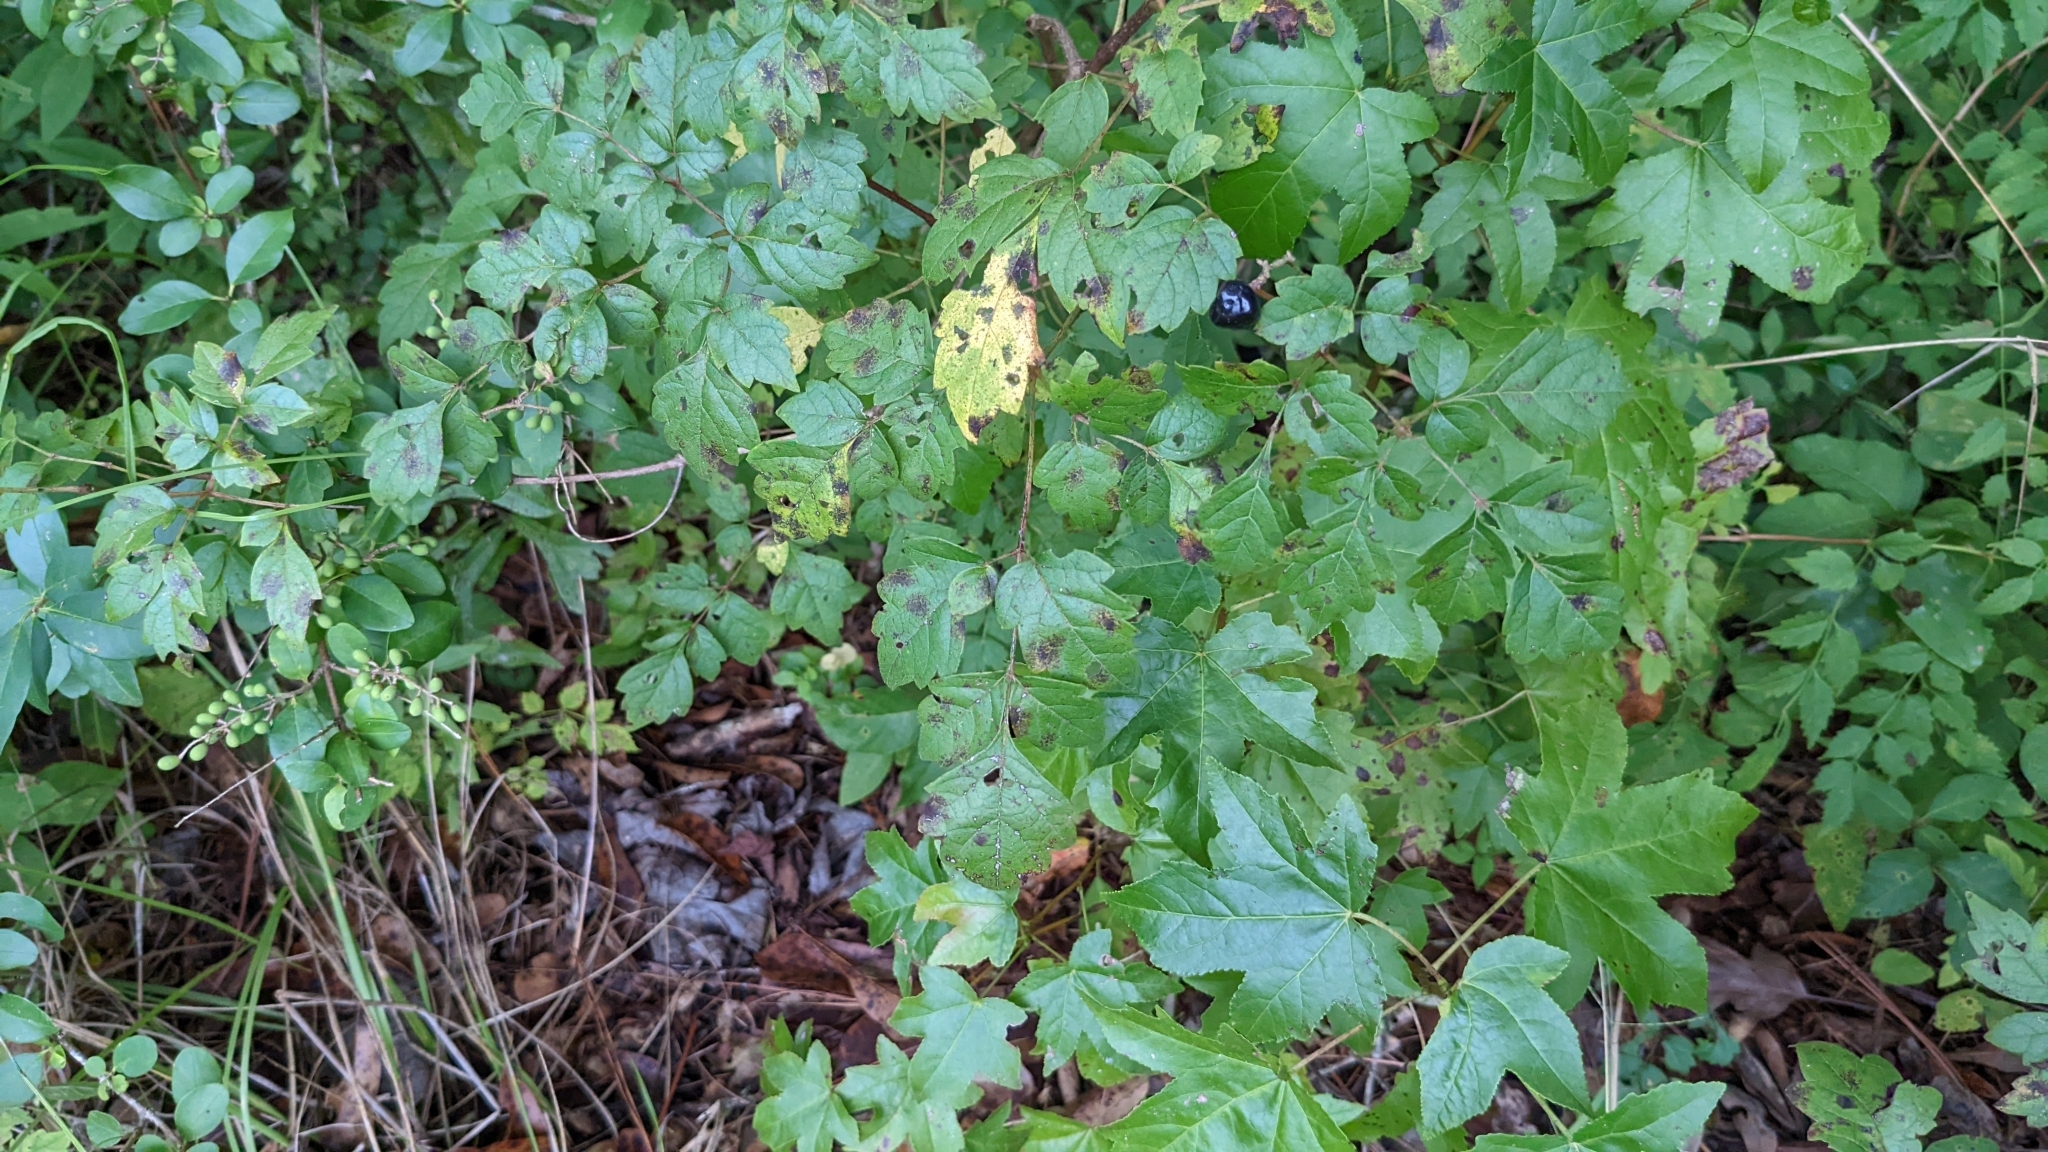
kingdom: Plantae
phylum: Tracheophyta
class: Magnoliopsida
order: Vitales
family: Vitaceae
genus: Nekemias
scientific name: Nekemias arborea
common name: Peppervine
